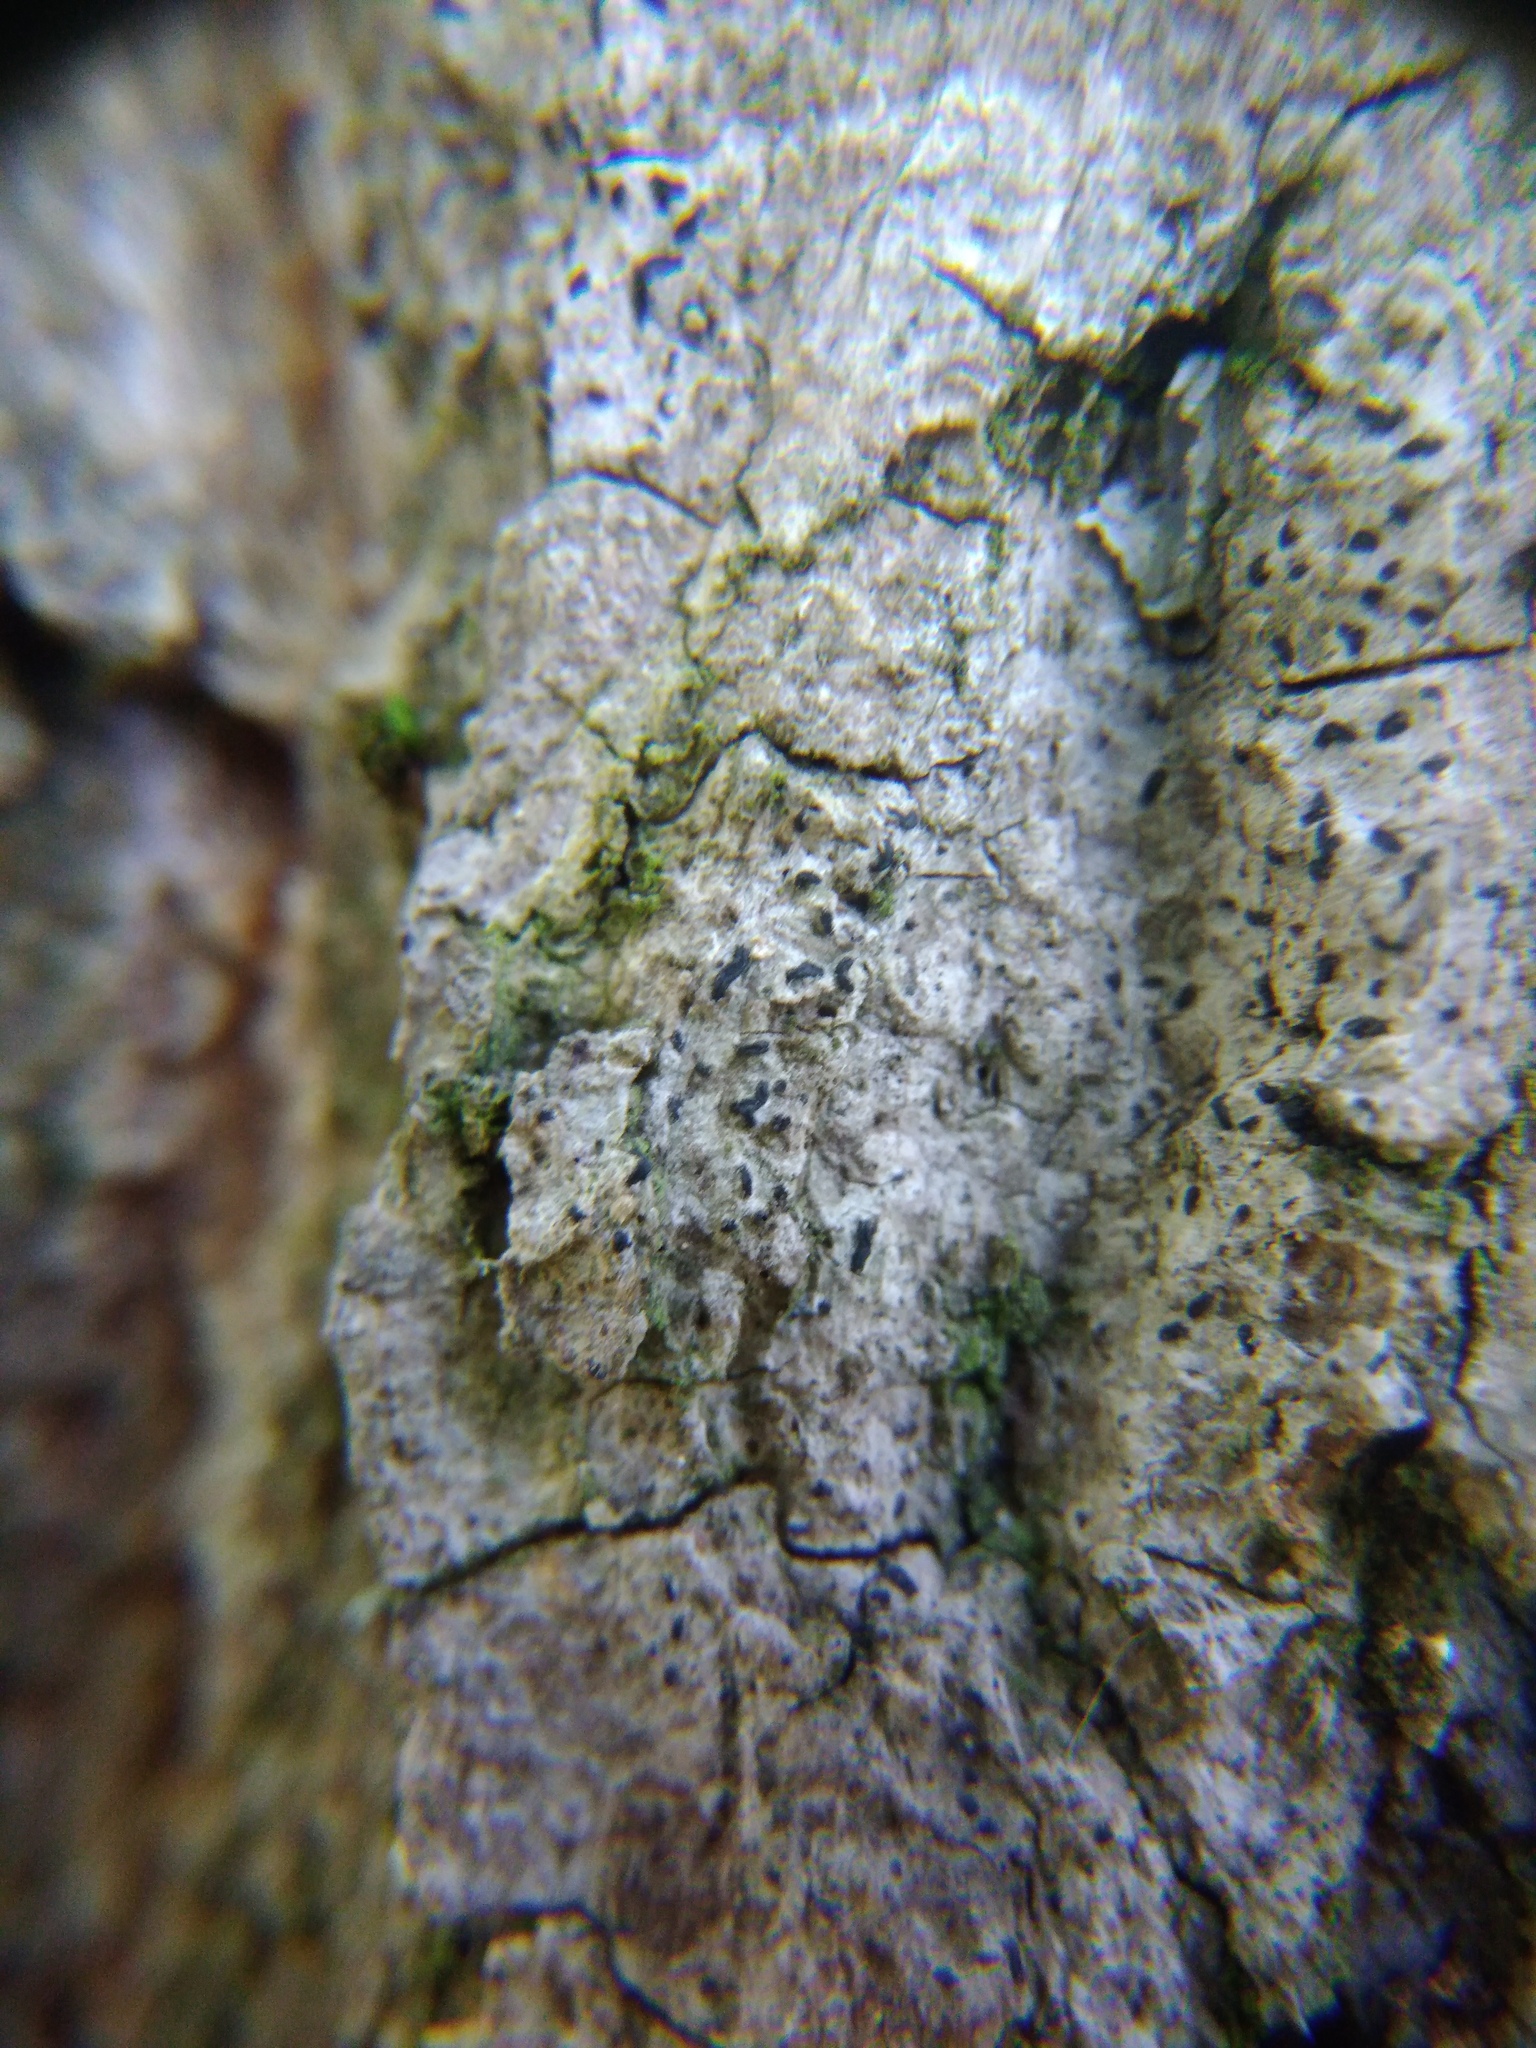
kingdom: Fungi
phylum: Ascomycota
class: Arthoniomycetes
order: Arthoniales
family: Lecanographaceae
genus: Alyxoria
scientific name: Alyxoria varia
